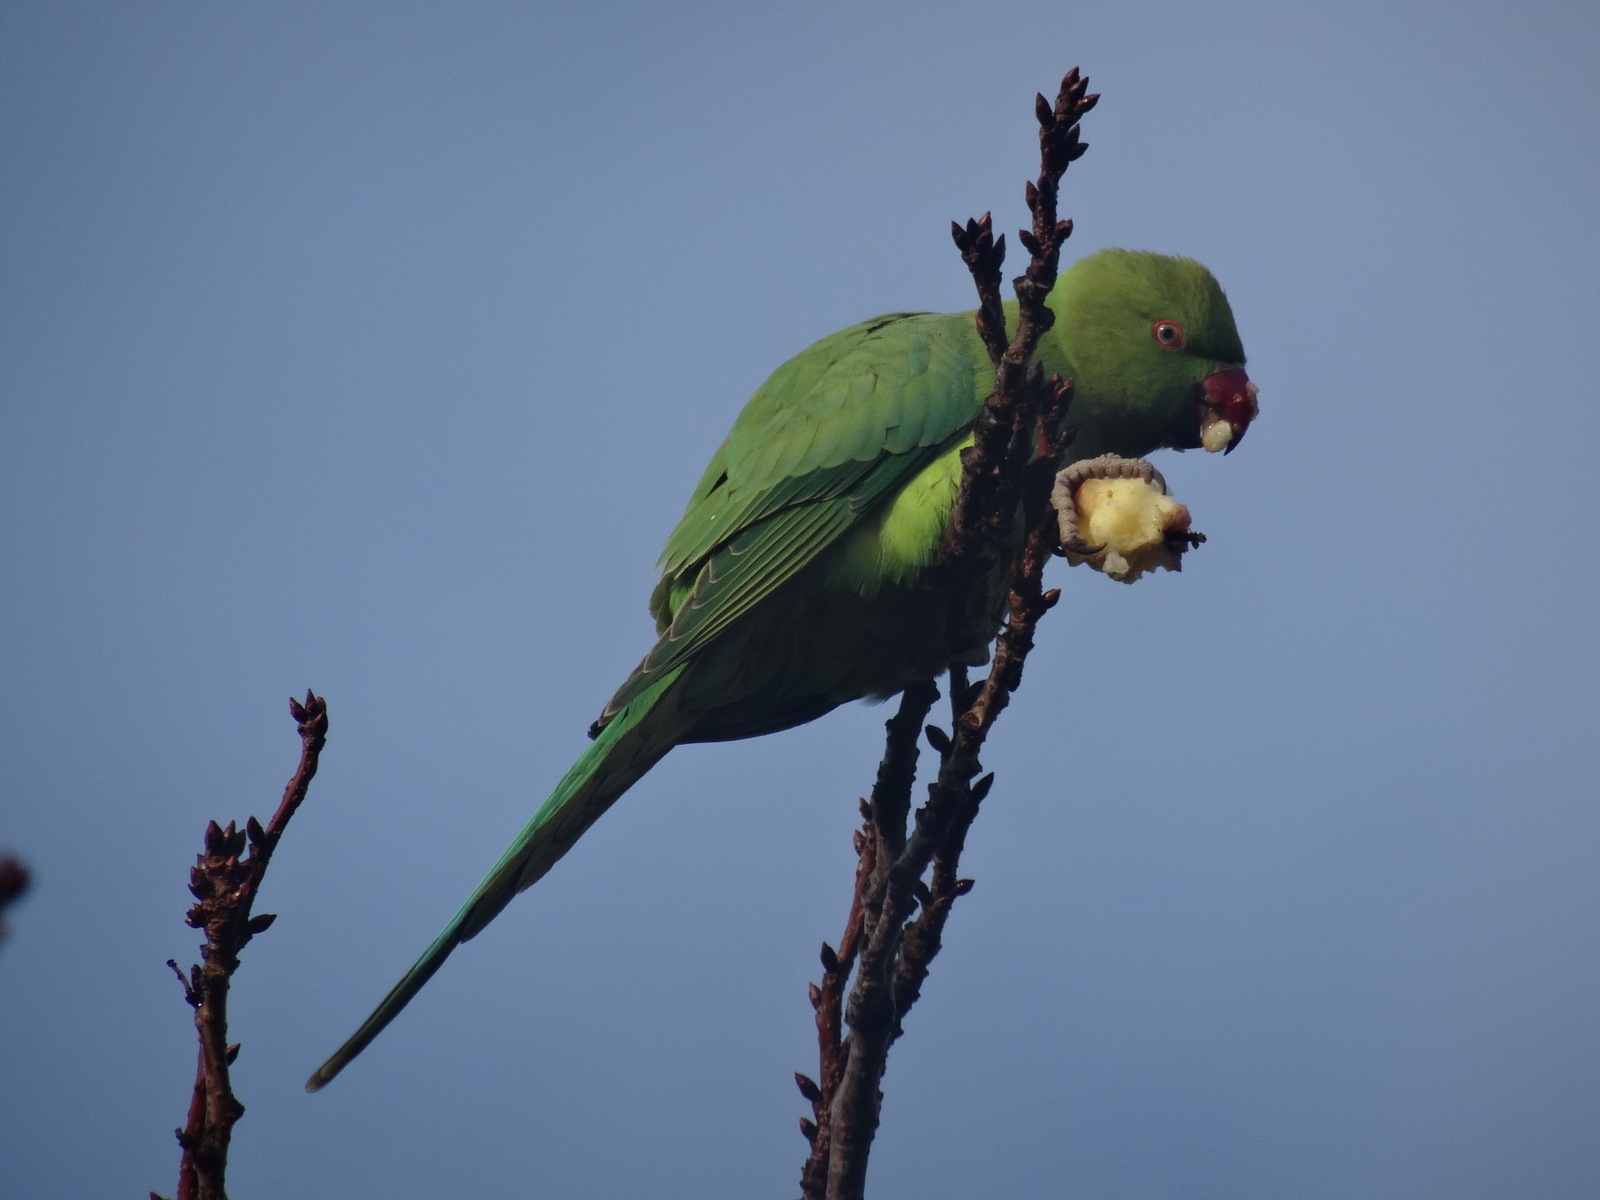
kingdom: Animalia
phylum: Chordata
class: Aves
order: Psittaciformes
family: Psittacidae
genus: Psittacula
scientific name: Psittacula krameri
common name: Rose-ringed parakeet
